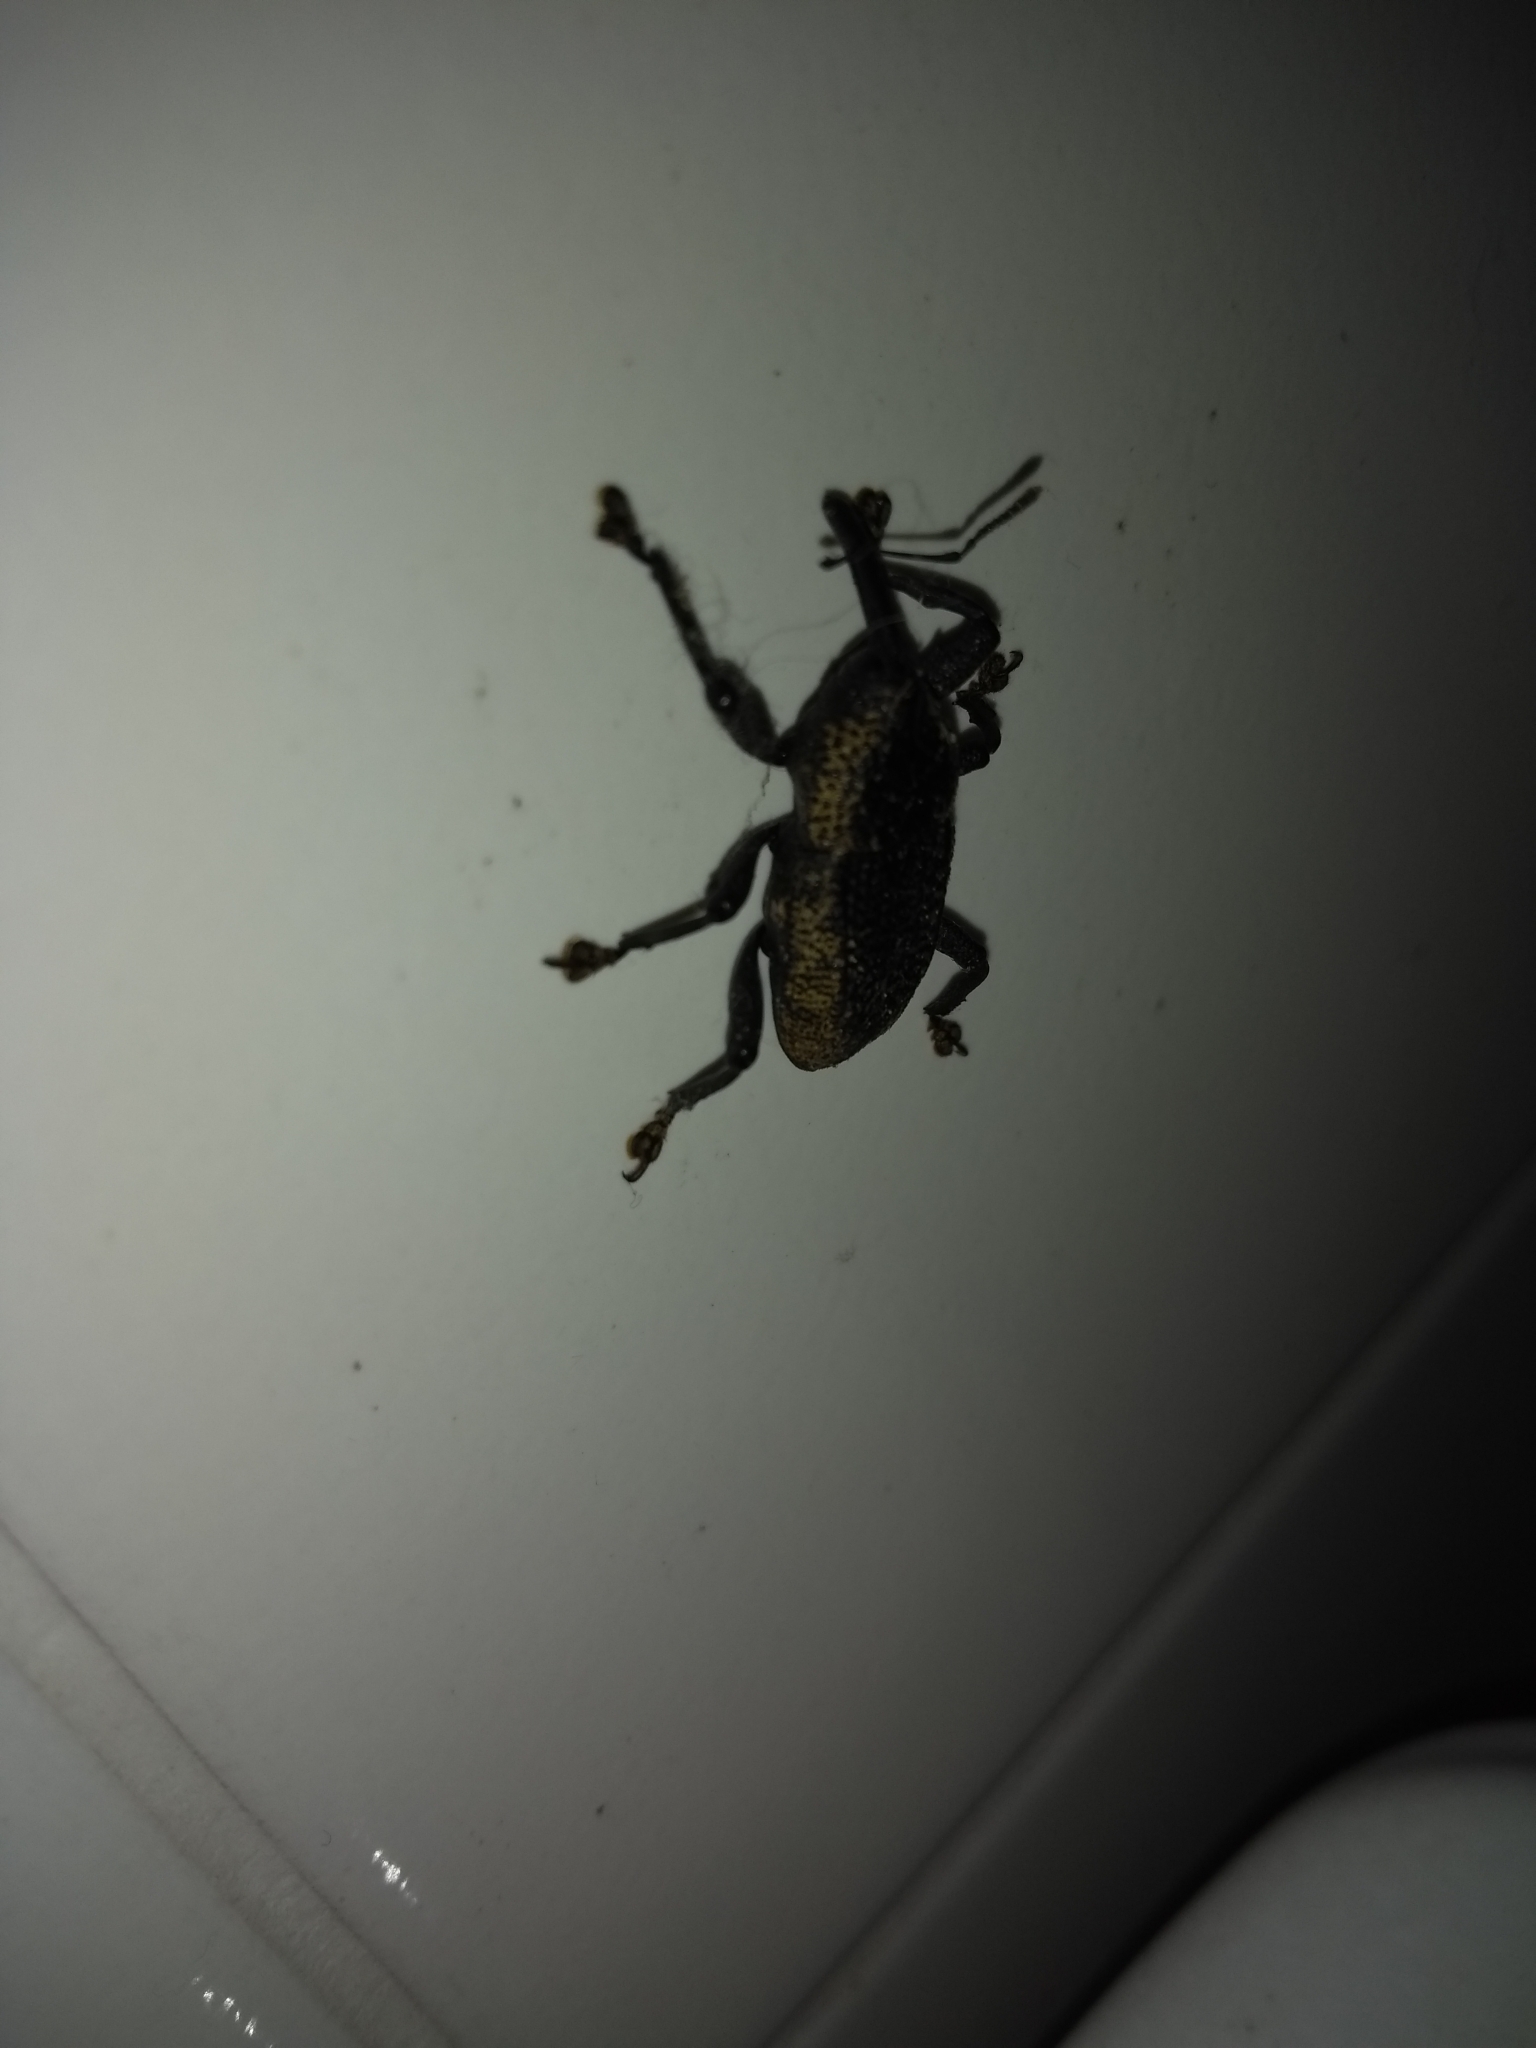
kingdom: Animalia
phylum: Arthropoda
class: Insecta
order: Coleoptera
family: Curculionidae
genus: Homalinotus
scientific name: Homalinotus deplanatus
